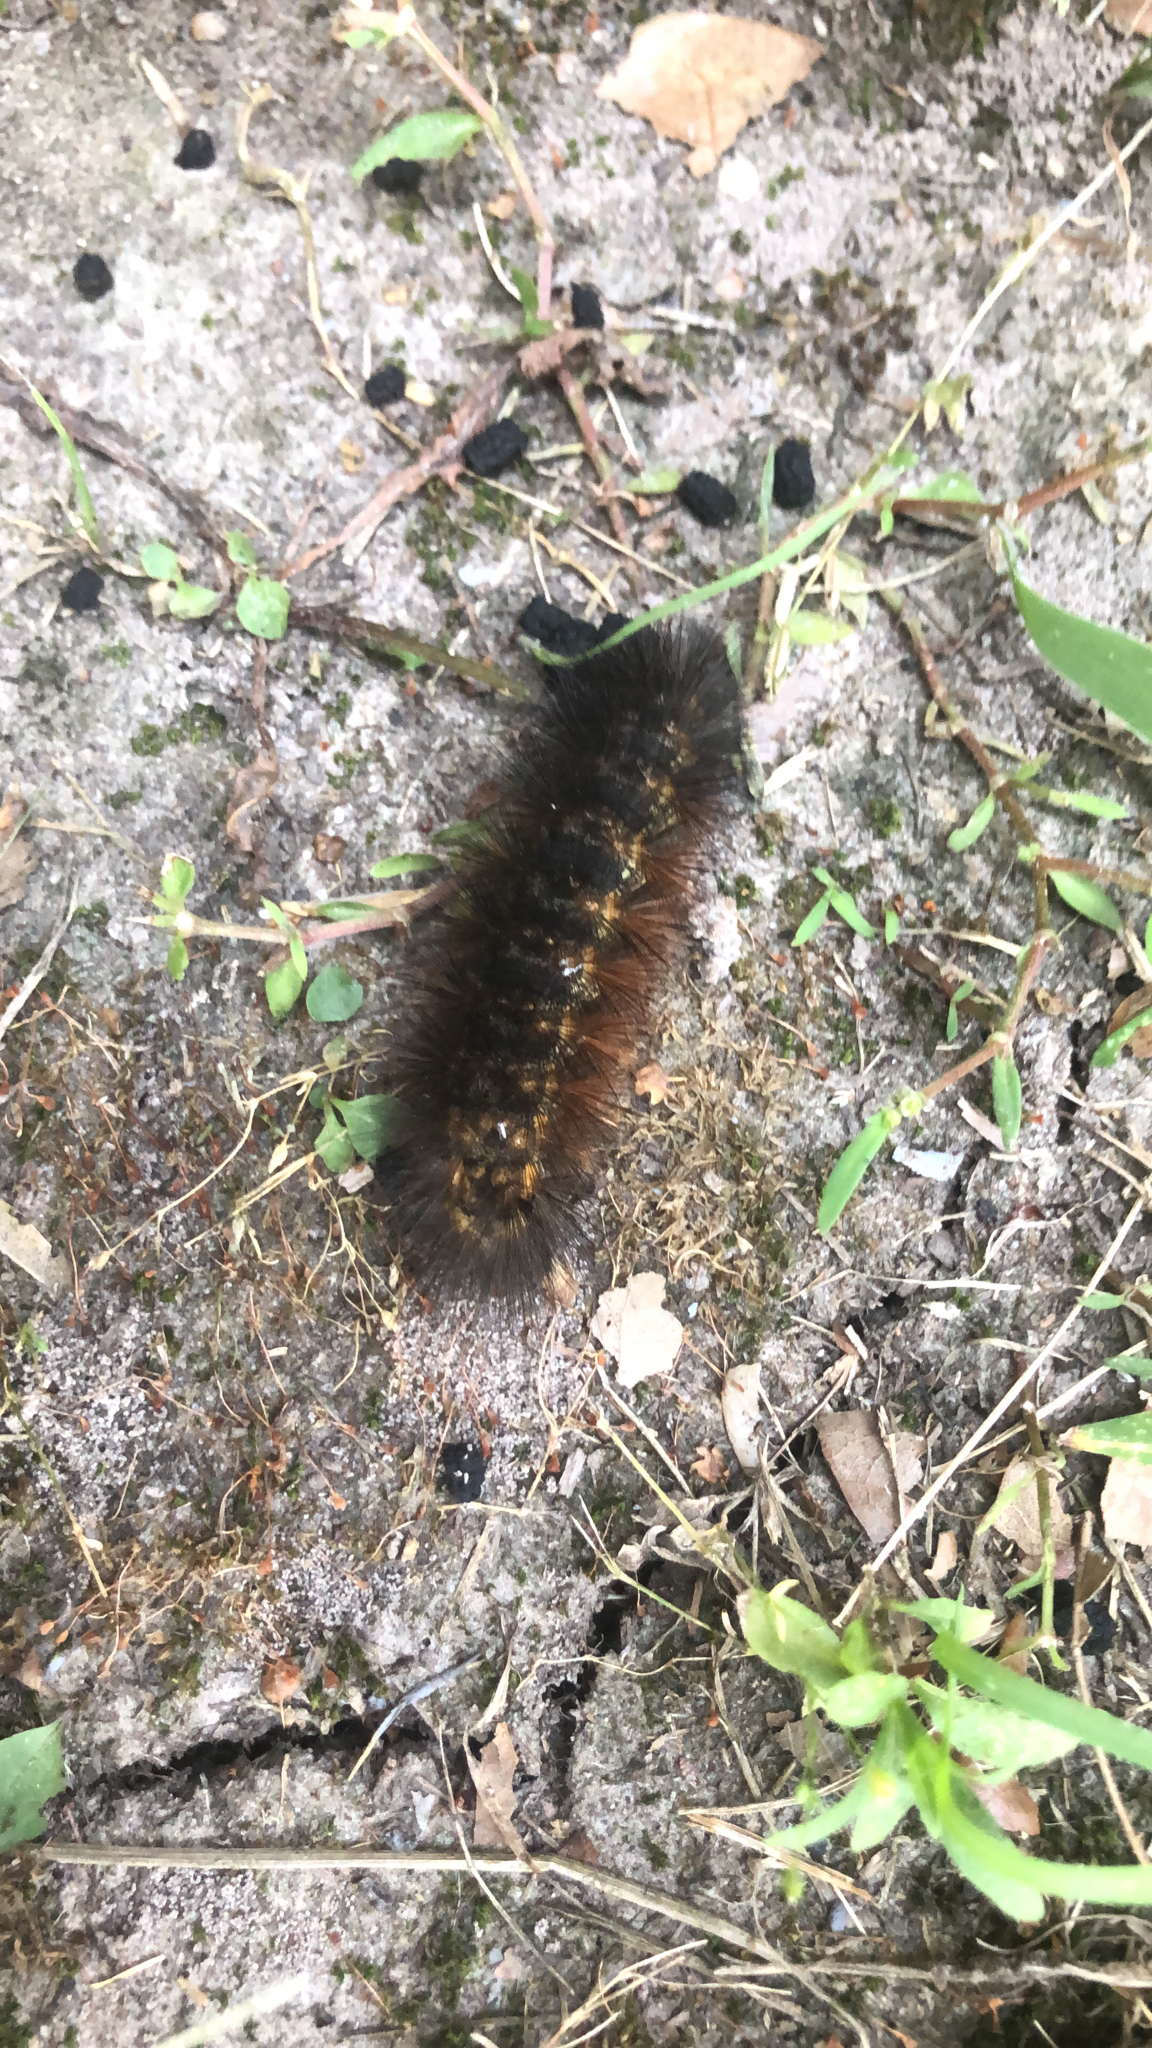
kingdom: Animalia
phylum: Arthropoda
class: Insecta
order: Lepidoptera
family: Erebidae
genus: Estigmene
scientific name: Estigmene acrea
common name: Salt marsh moth
